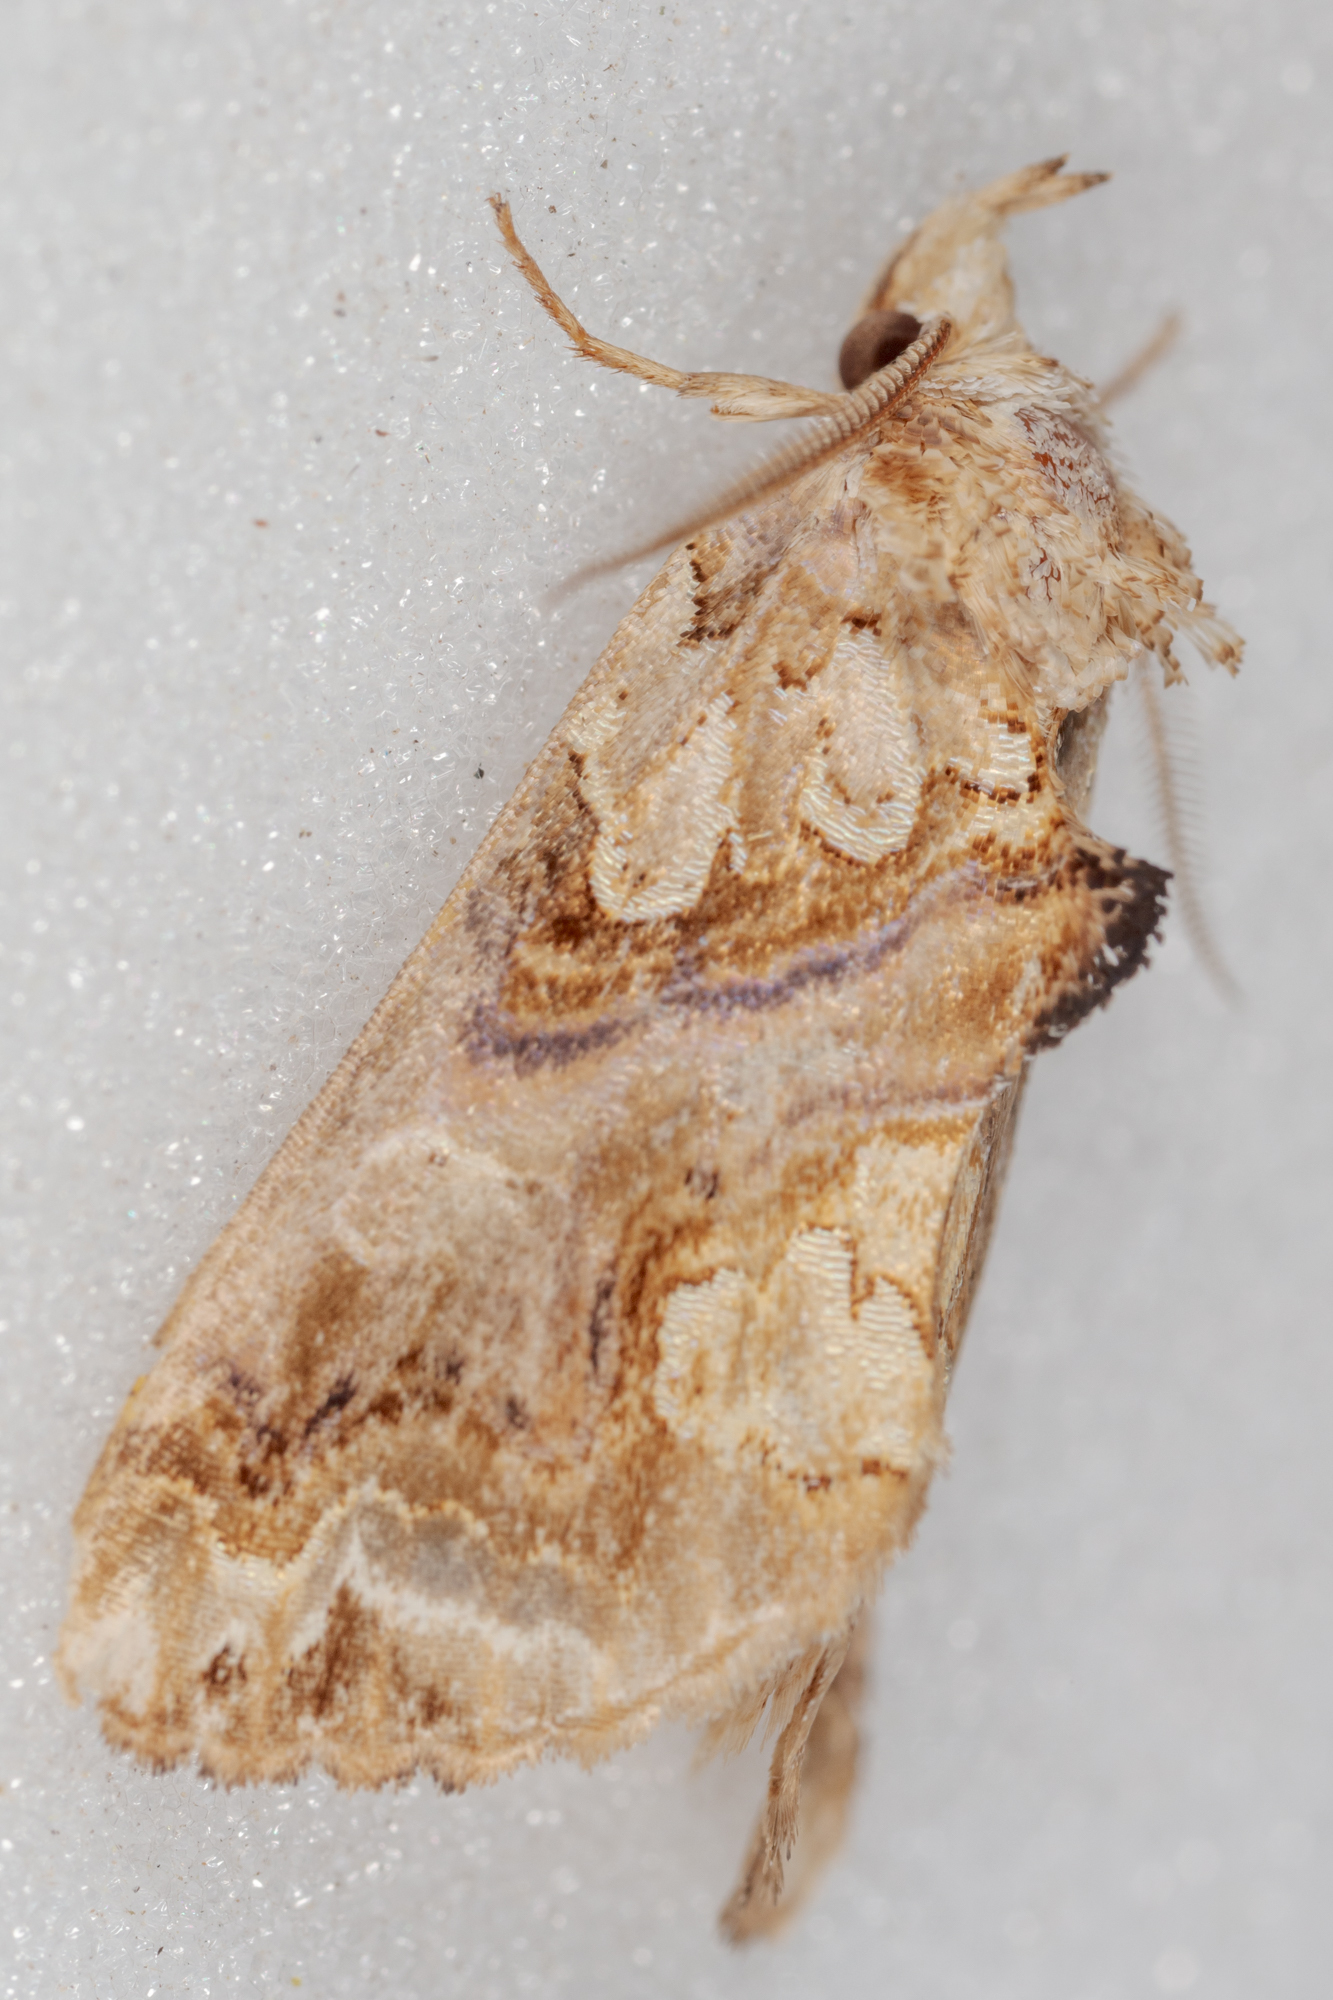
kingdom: Animalia
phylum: Arthropoda
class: Insecta
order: Lepidoptera
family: Erebidae
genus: Plusiodonta
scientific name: Plusiodonta compressipalpis
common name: Moonseed moth
